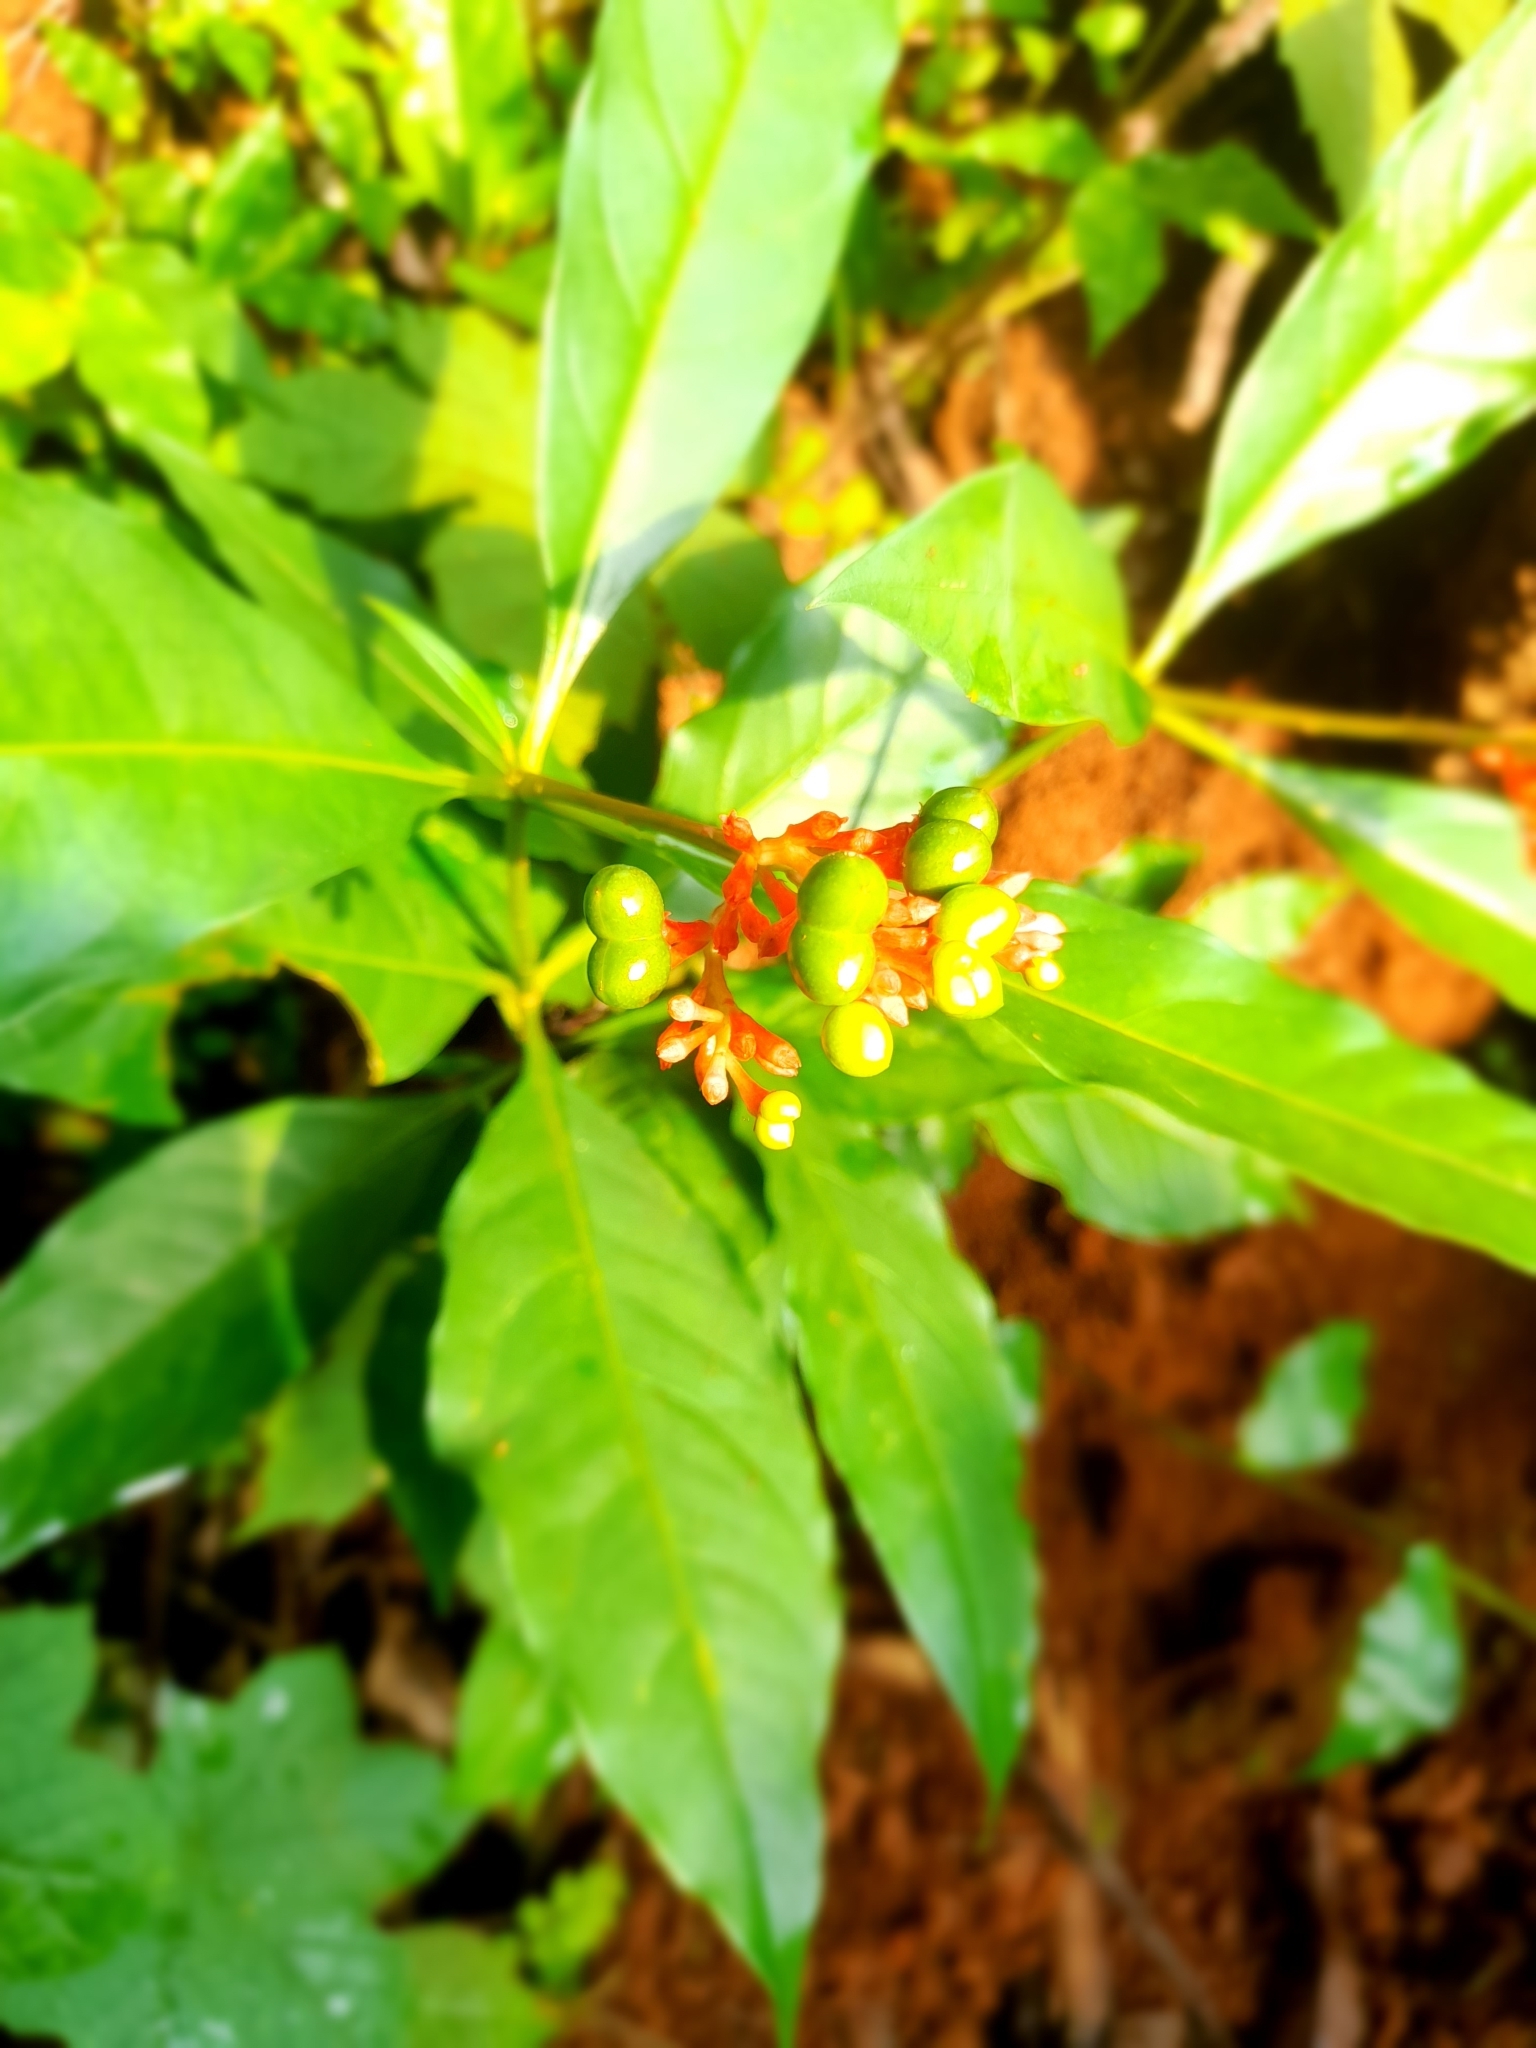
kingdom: Plantae
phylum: Tracheophyta
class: Magnoliopsida
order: Gentianales
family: Apocynaceae
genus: Rauvolfia
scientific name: Rauvolfia serpentina
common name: Ajmaline
